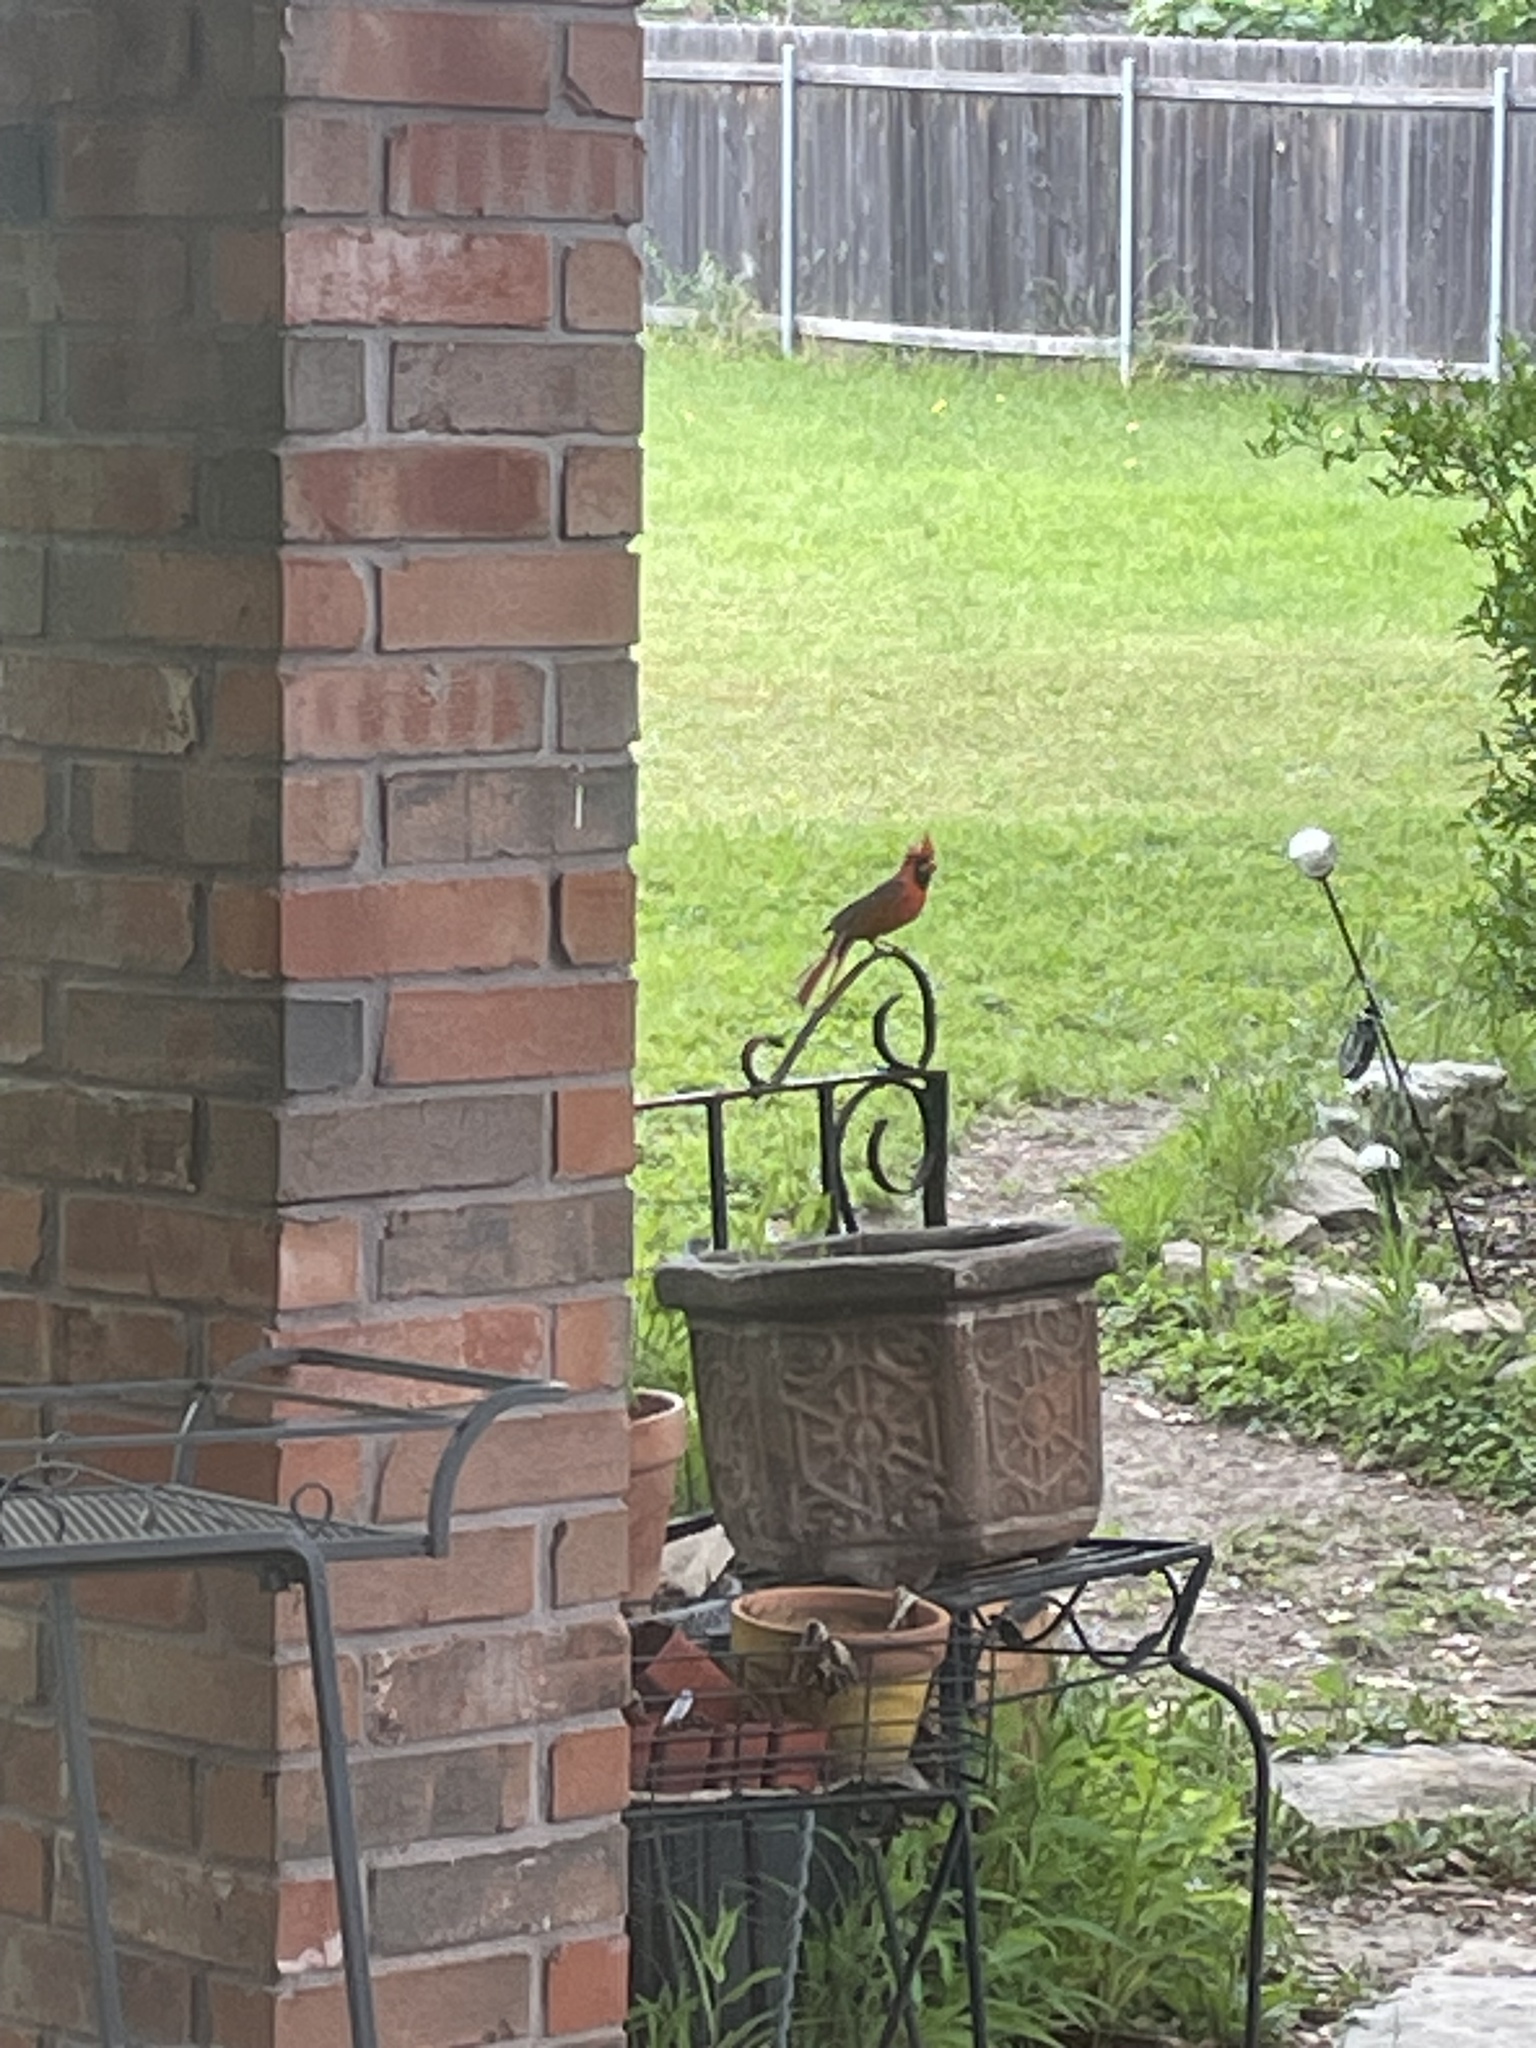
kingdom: Animalia
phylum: Chordata
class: Aves
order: Passeriformes
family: Cardinalidae
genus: Cardinalis
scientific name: Cardinalis cardinalis
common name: Northern cardinal
